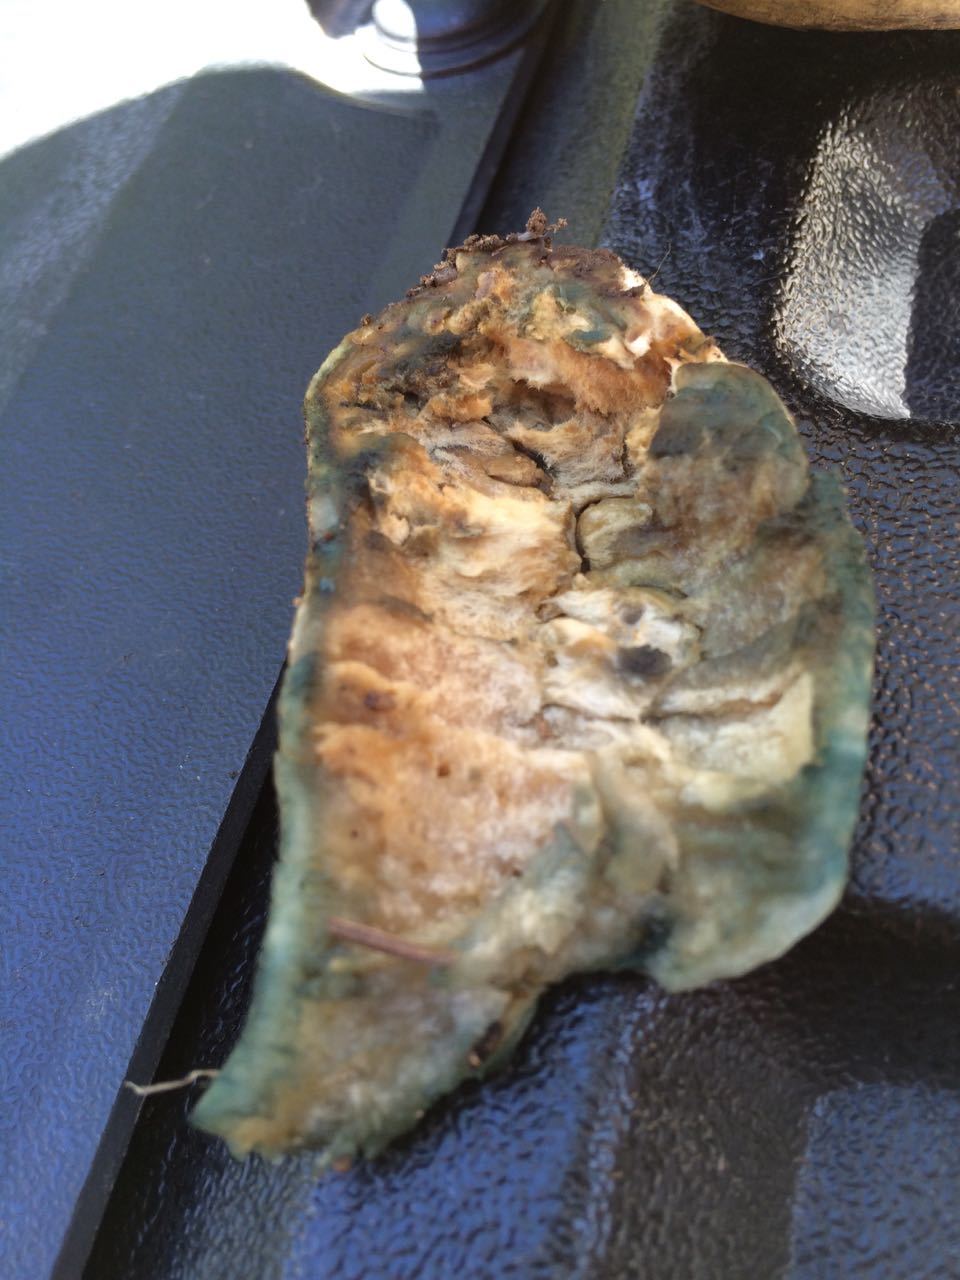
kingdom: Fungi
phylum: Basidiomycota
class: Agaricomycetes
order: Boletales
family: Gyroporaceae
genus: Gyroporus
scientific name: Gyroporus cyanescens
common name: Cornflower bolete
